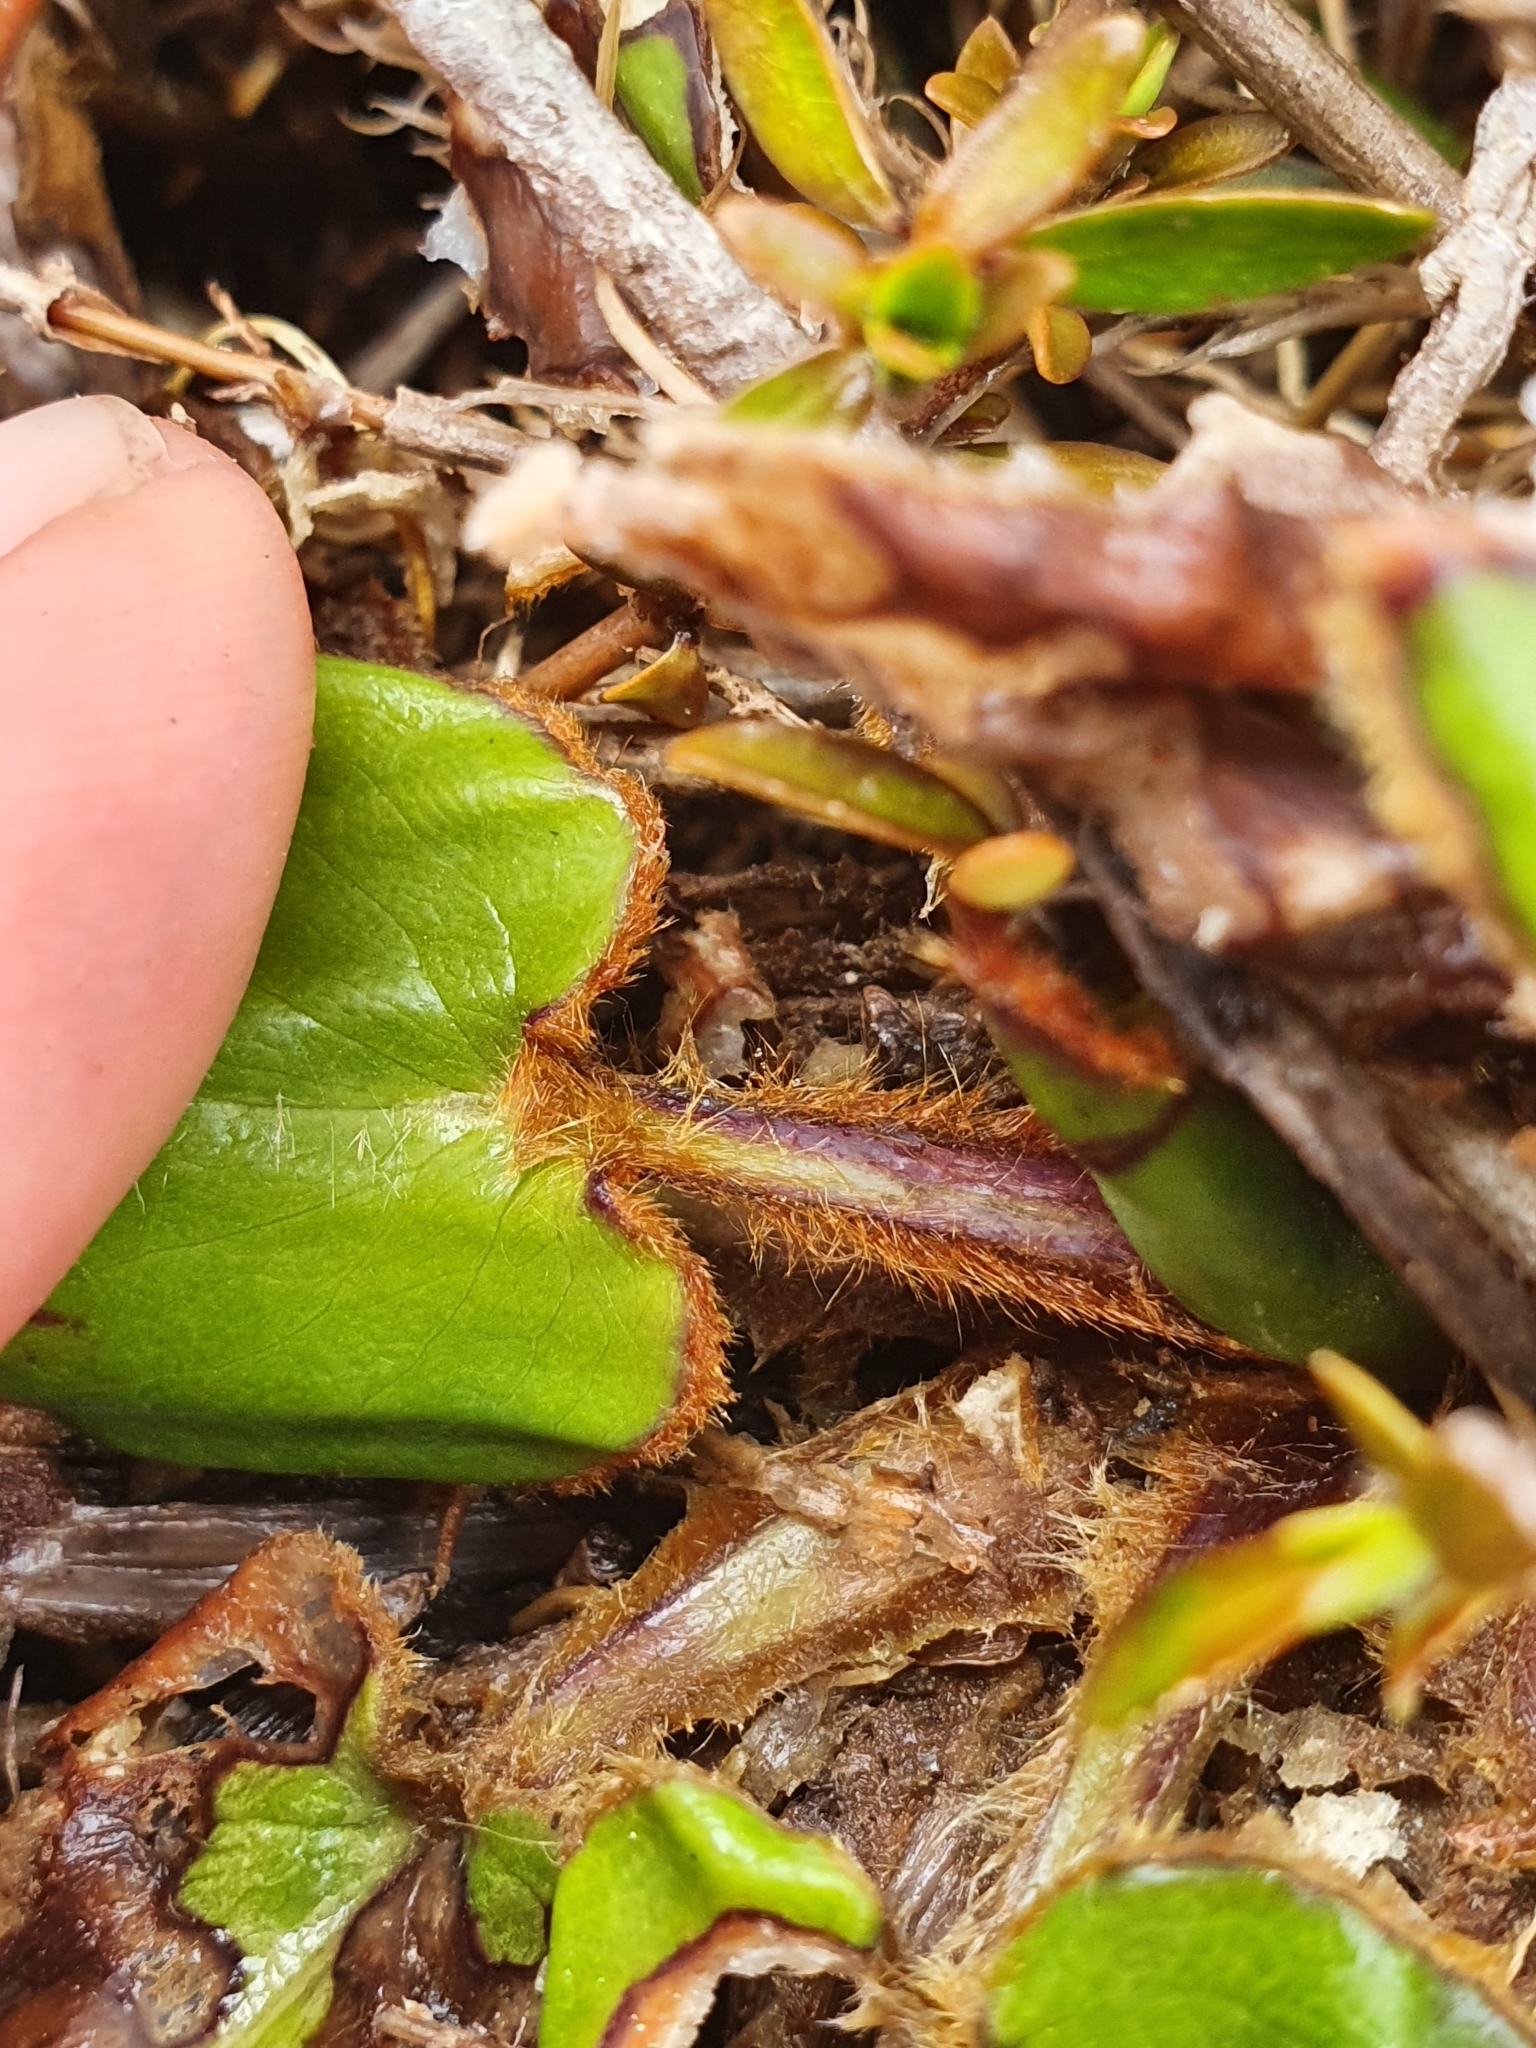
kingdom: Plantae
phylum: Tracheophyta
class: Magnoliopsida
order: Asterales
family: Asteraceae
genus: Celmisia
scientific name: Celmisia cordatifolia
